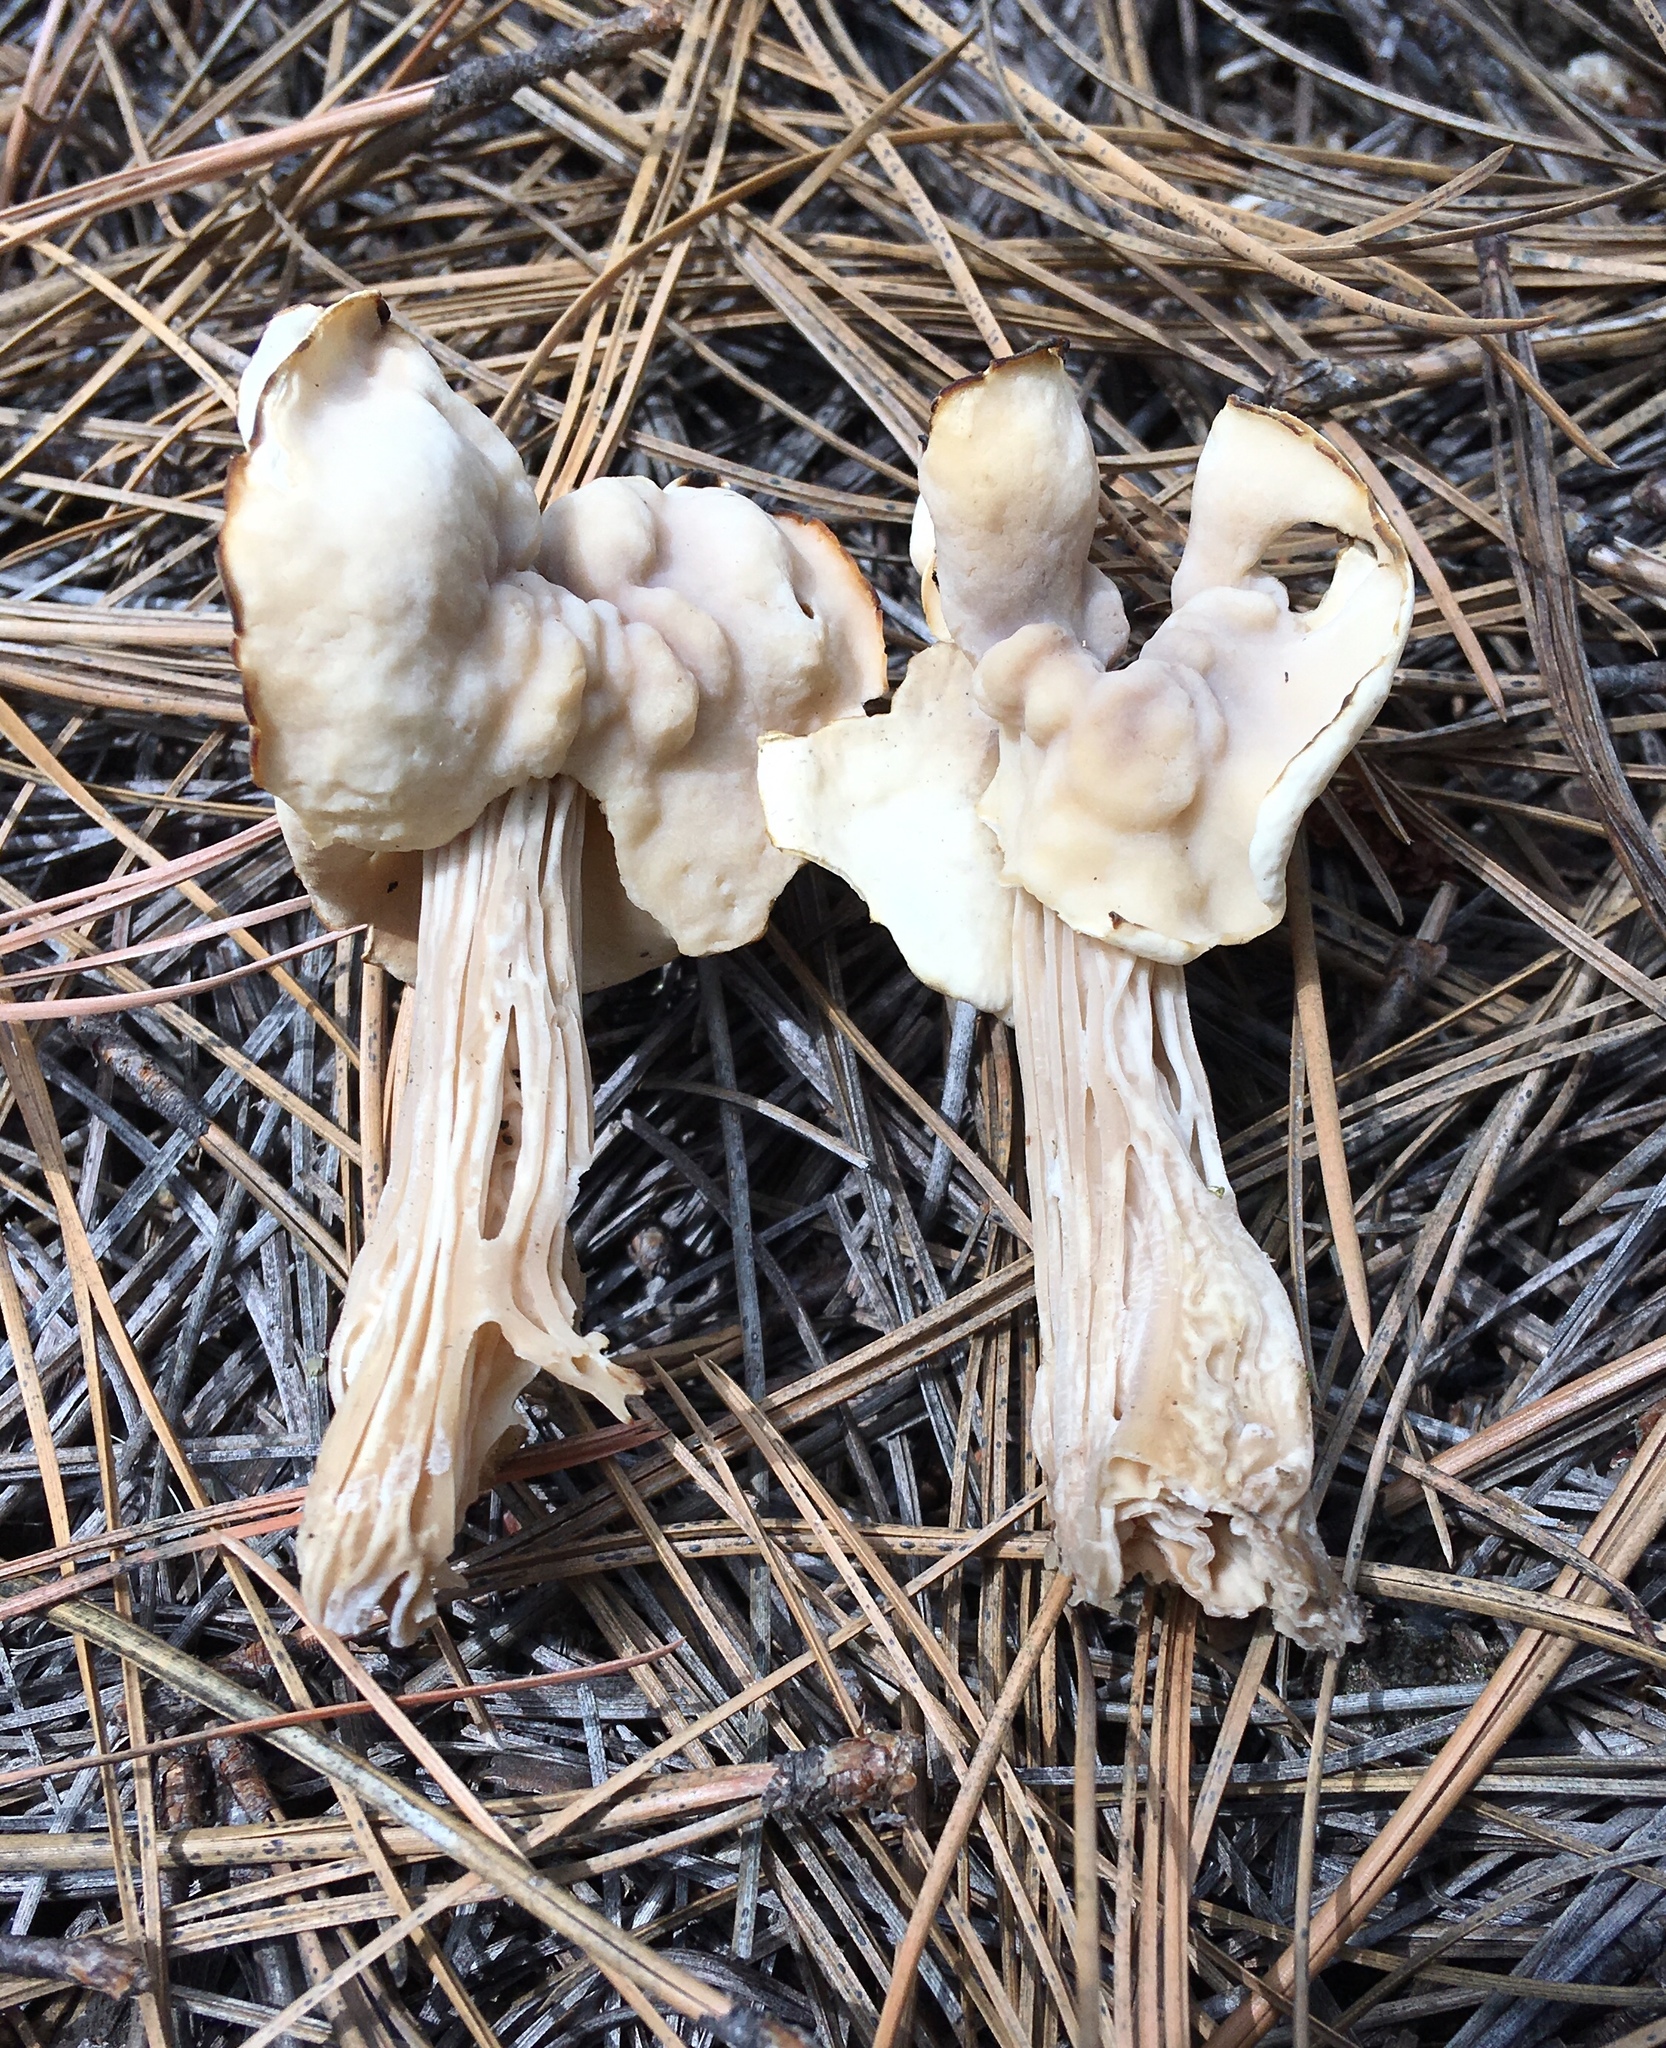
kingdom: Fungi
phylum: Ascomycota
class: Pezizomycetes
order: Pezizales
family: Helvellaceae
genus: Helvella
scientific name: Helvella crispa
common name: White saddle
